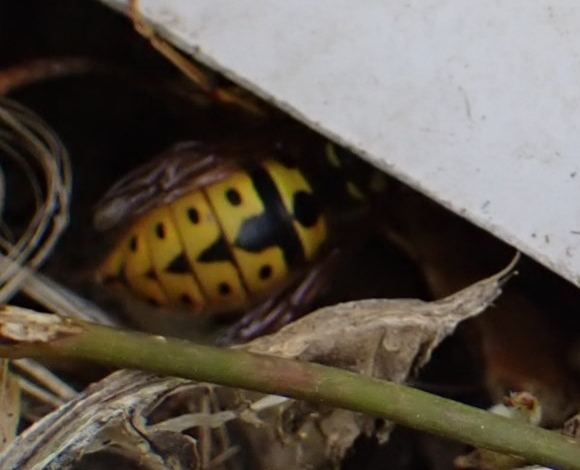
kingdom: Animalia
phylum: Arthropoda
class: Insecta
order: Hymenoptera
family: Vespidae
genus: Vespula
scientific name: Vespula germanica
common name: German wasp
